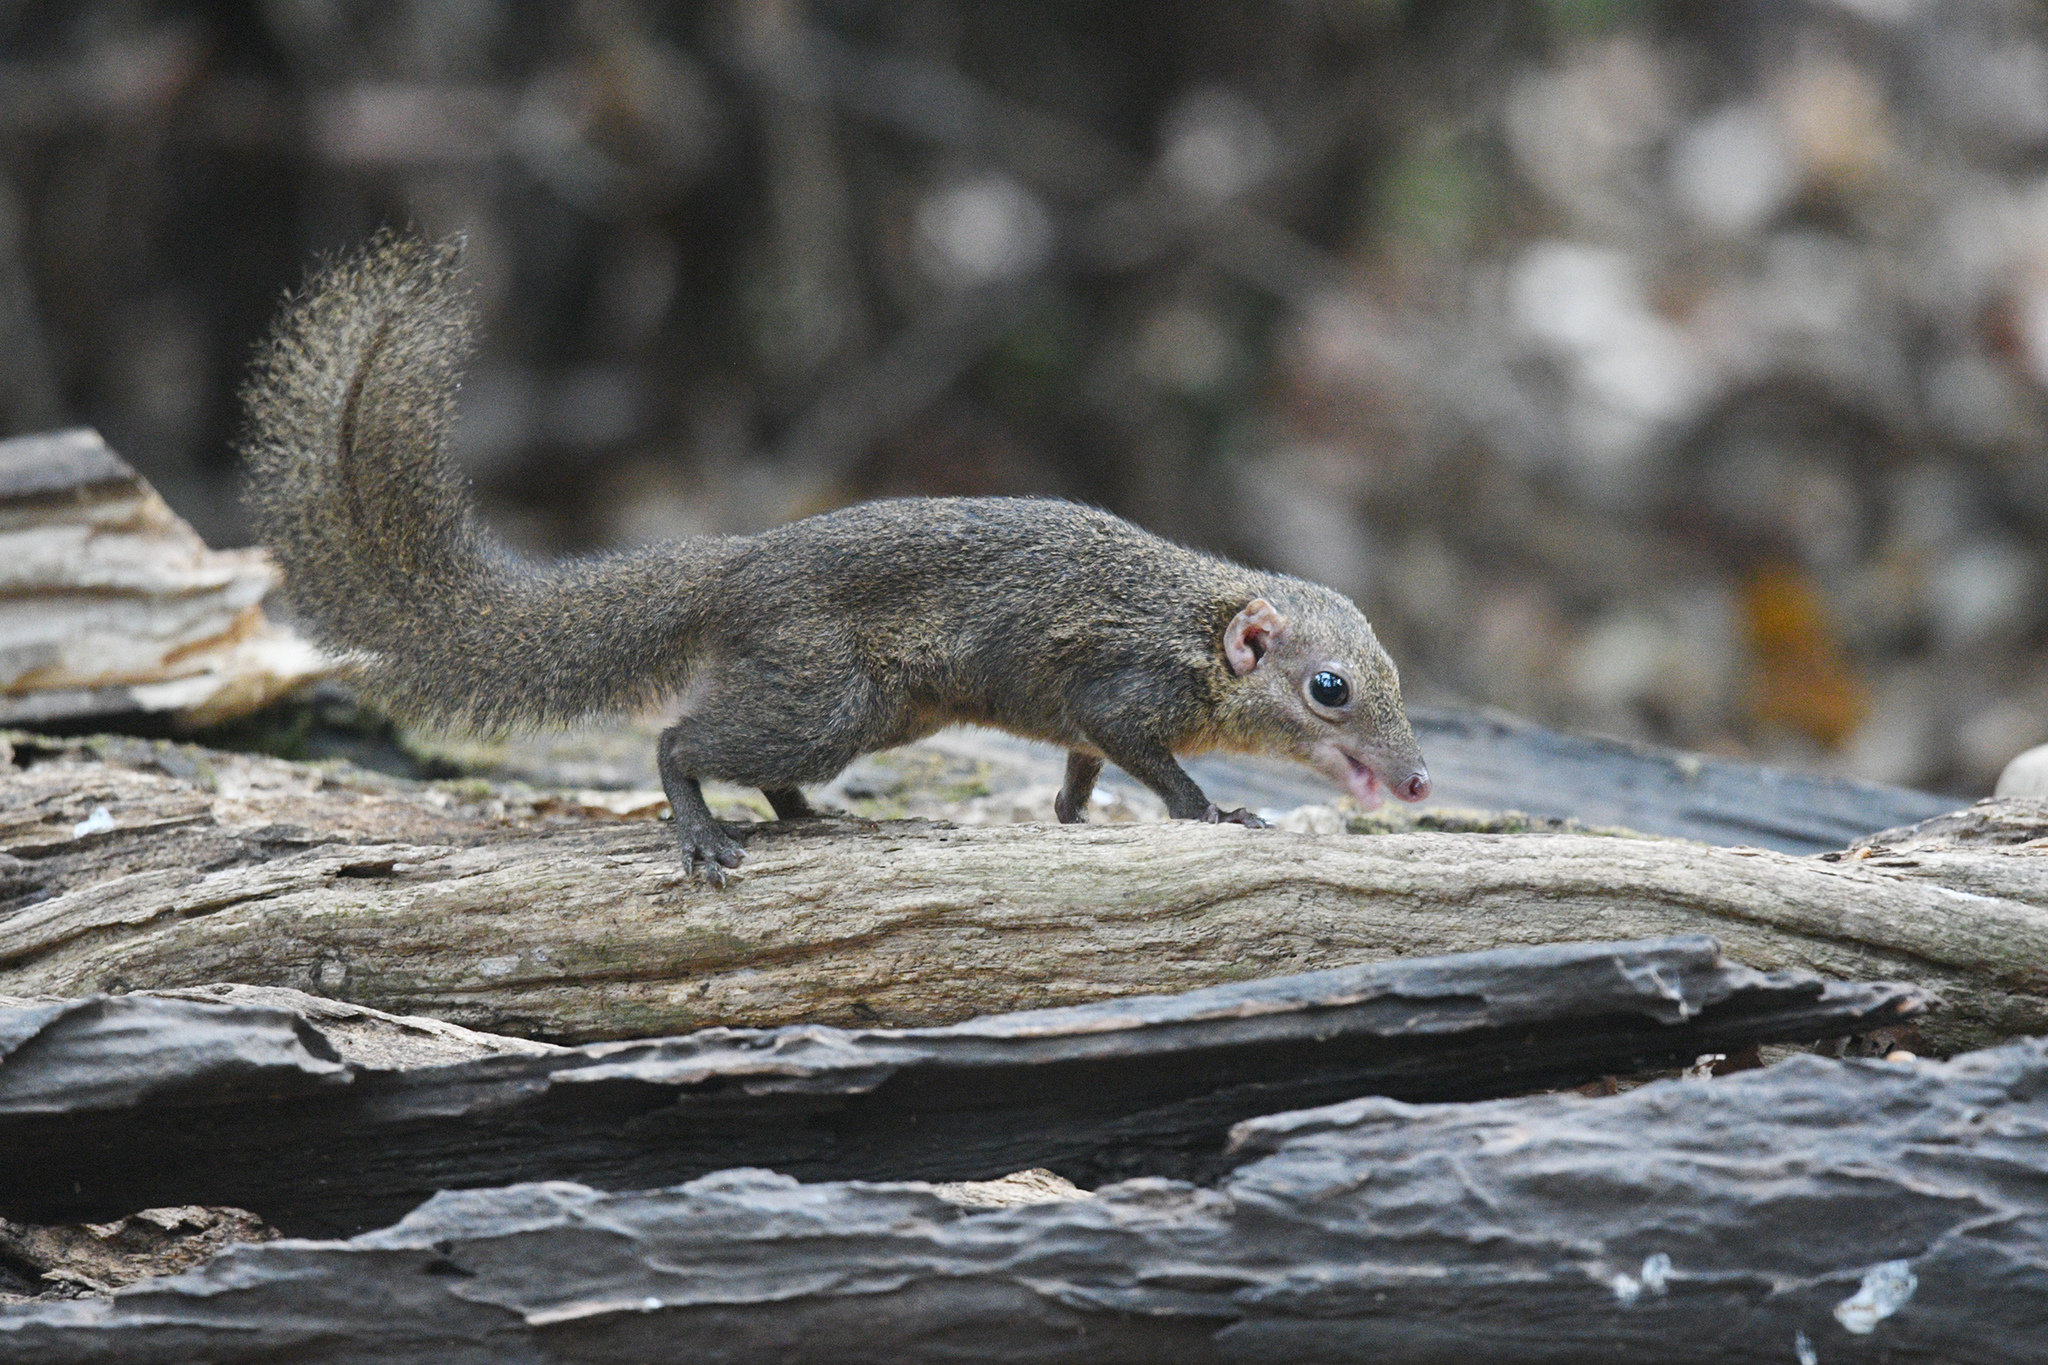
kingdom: Animalia
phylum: Chordata
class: Mammalia
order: Scandentia
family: Tupaiidae
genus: Tupaia
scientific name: Tupaia belangeri
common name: Northern treeshrew
